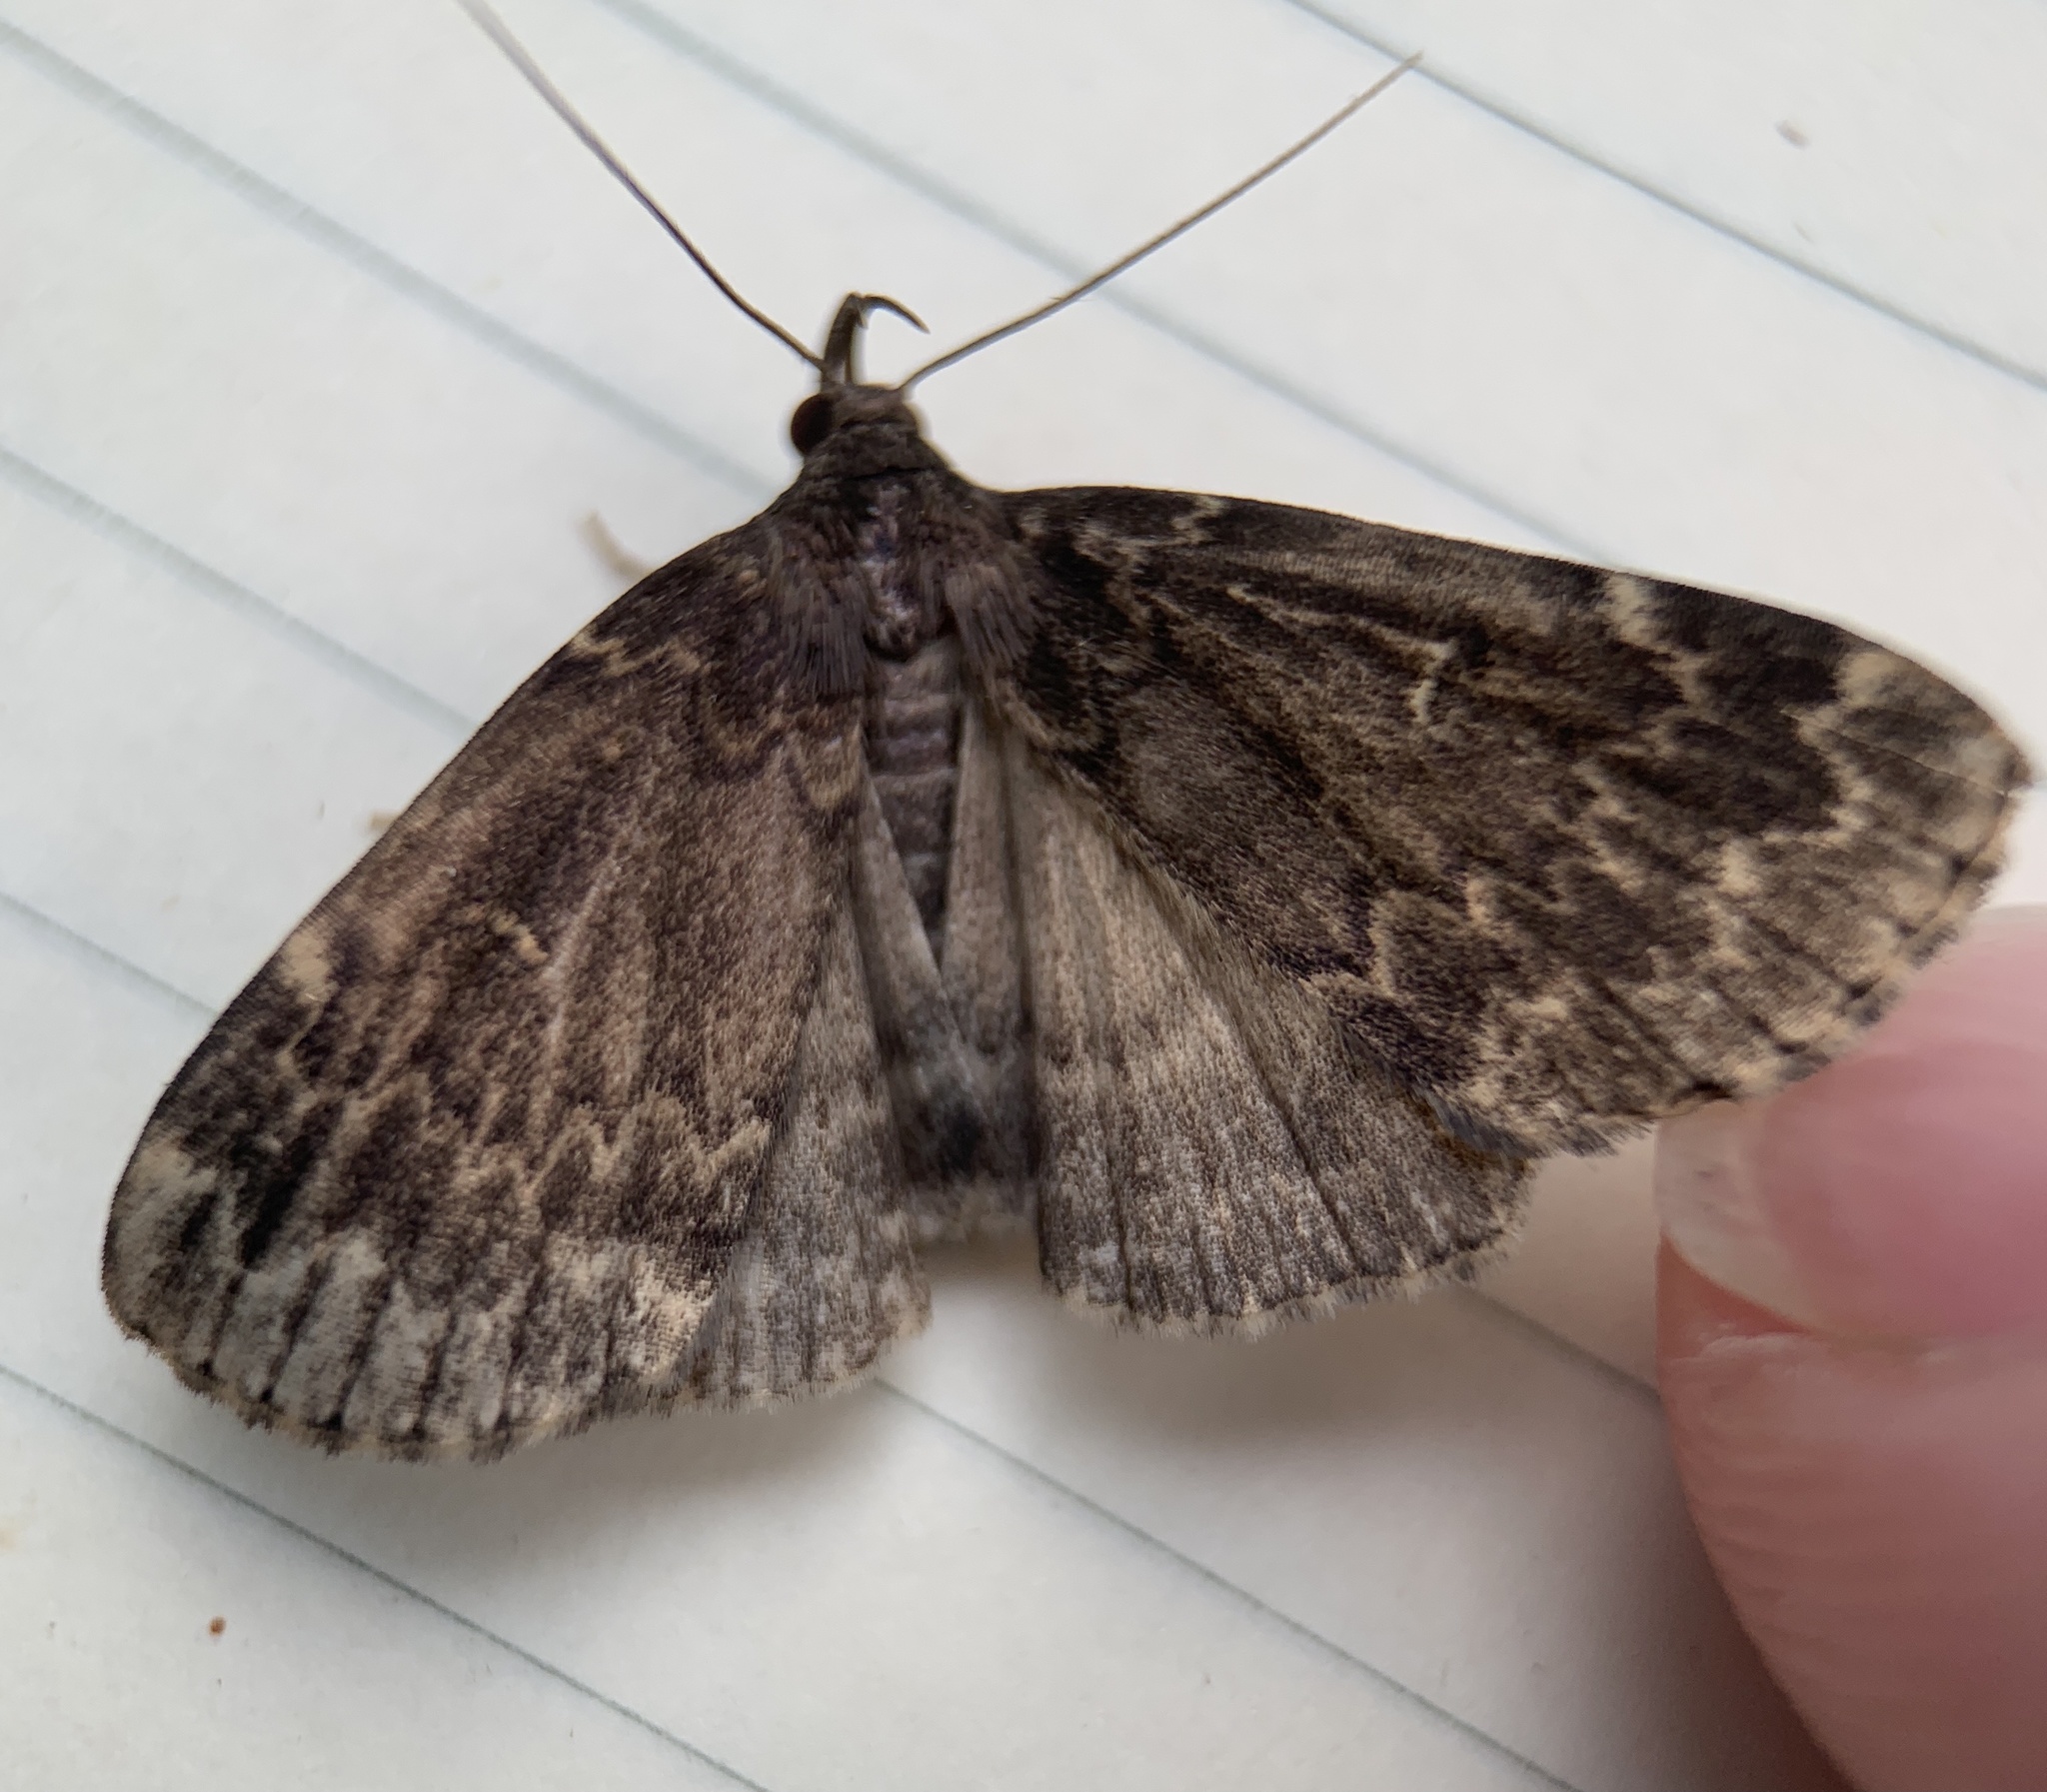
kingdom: Animalia
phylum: Arthropoda
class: Insecta
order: Lepidoptera
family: Erebidae
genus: Idia
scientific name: Idia lubricalis
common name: Twin-striped tabby
